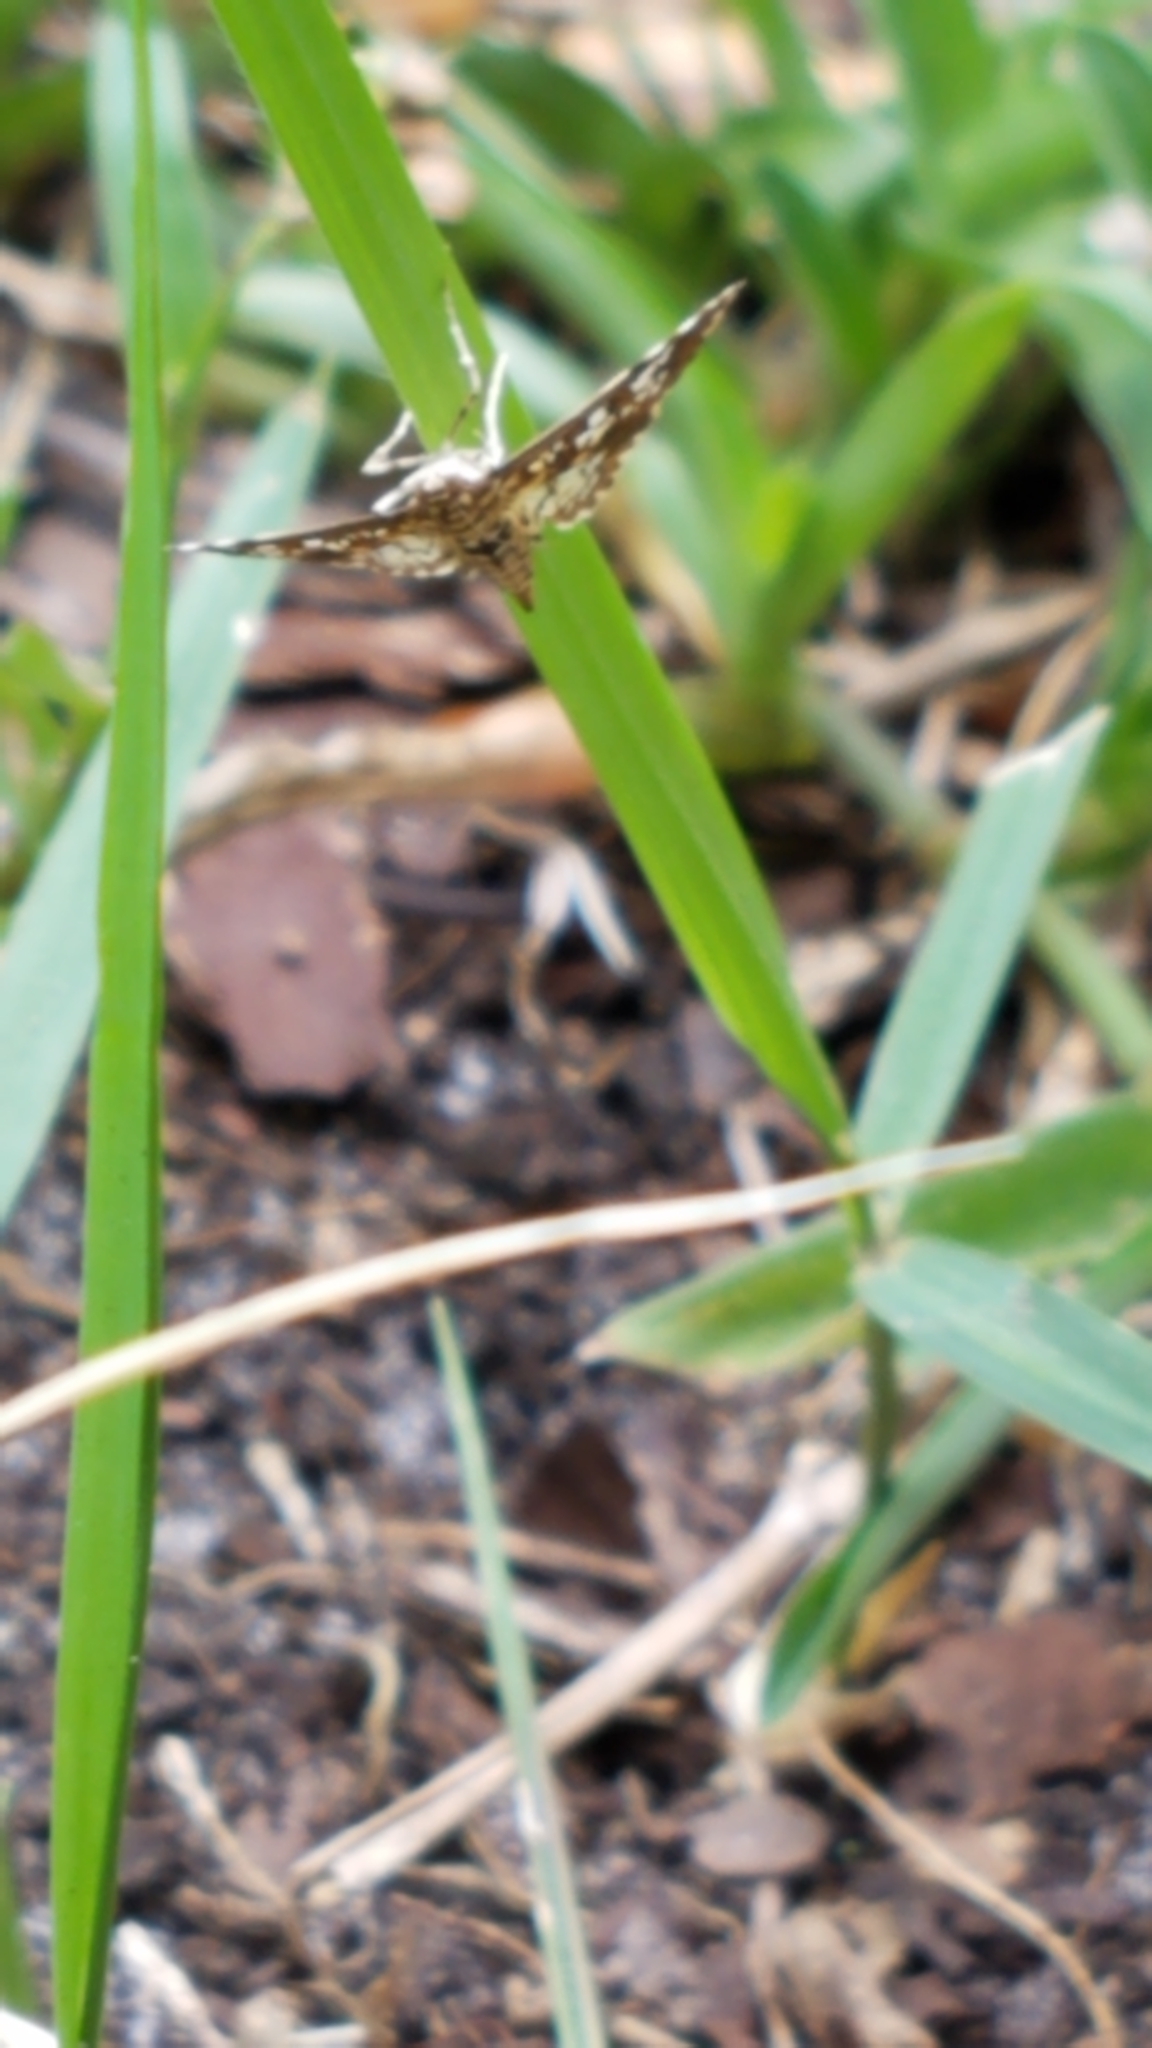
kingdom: Animalia
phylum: Arthropoda
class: Insecta
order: Lepidoptera
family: Crambidae
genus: Samea
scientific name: Samea ecclesialis
